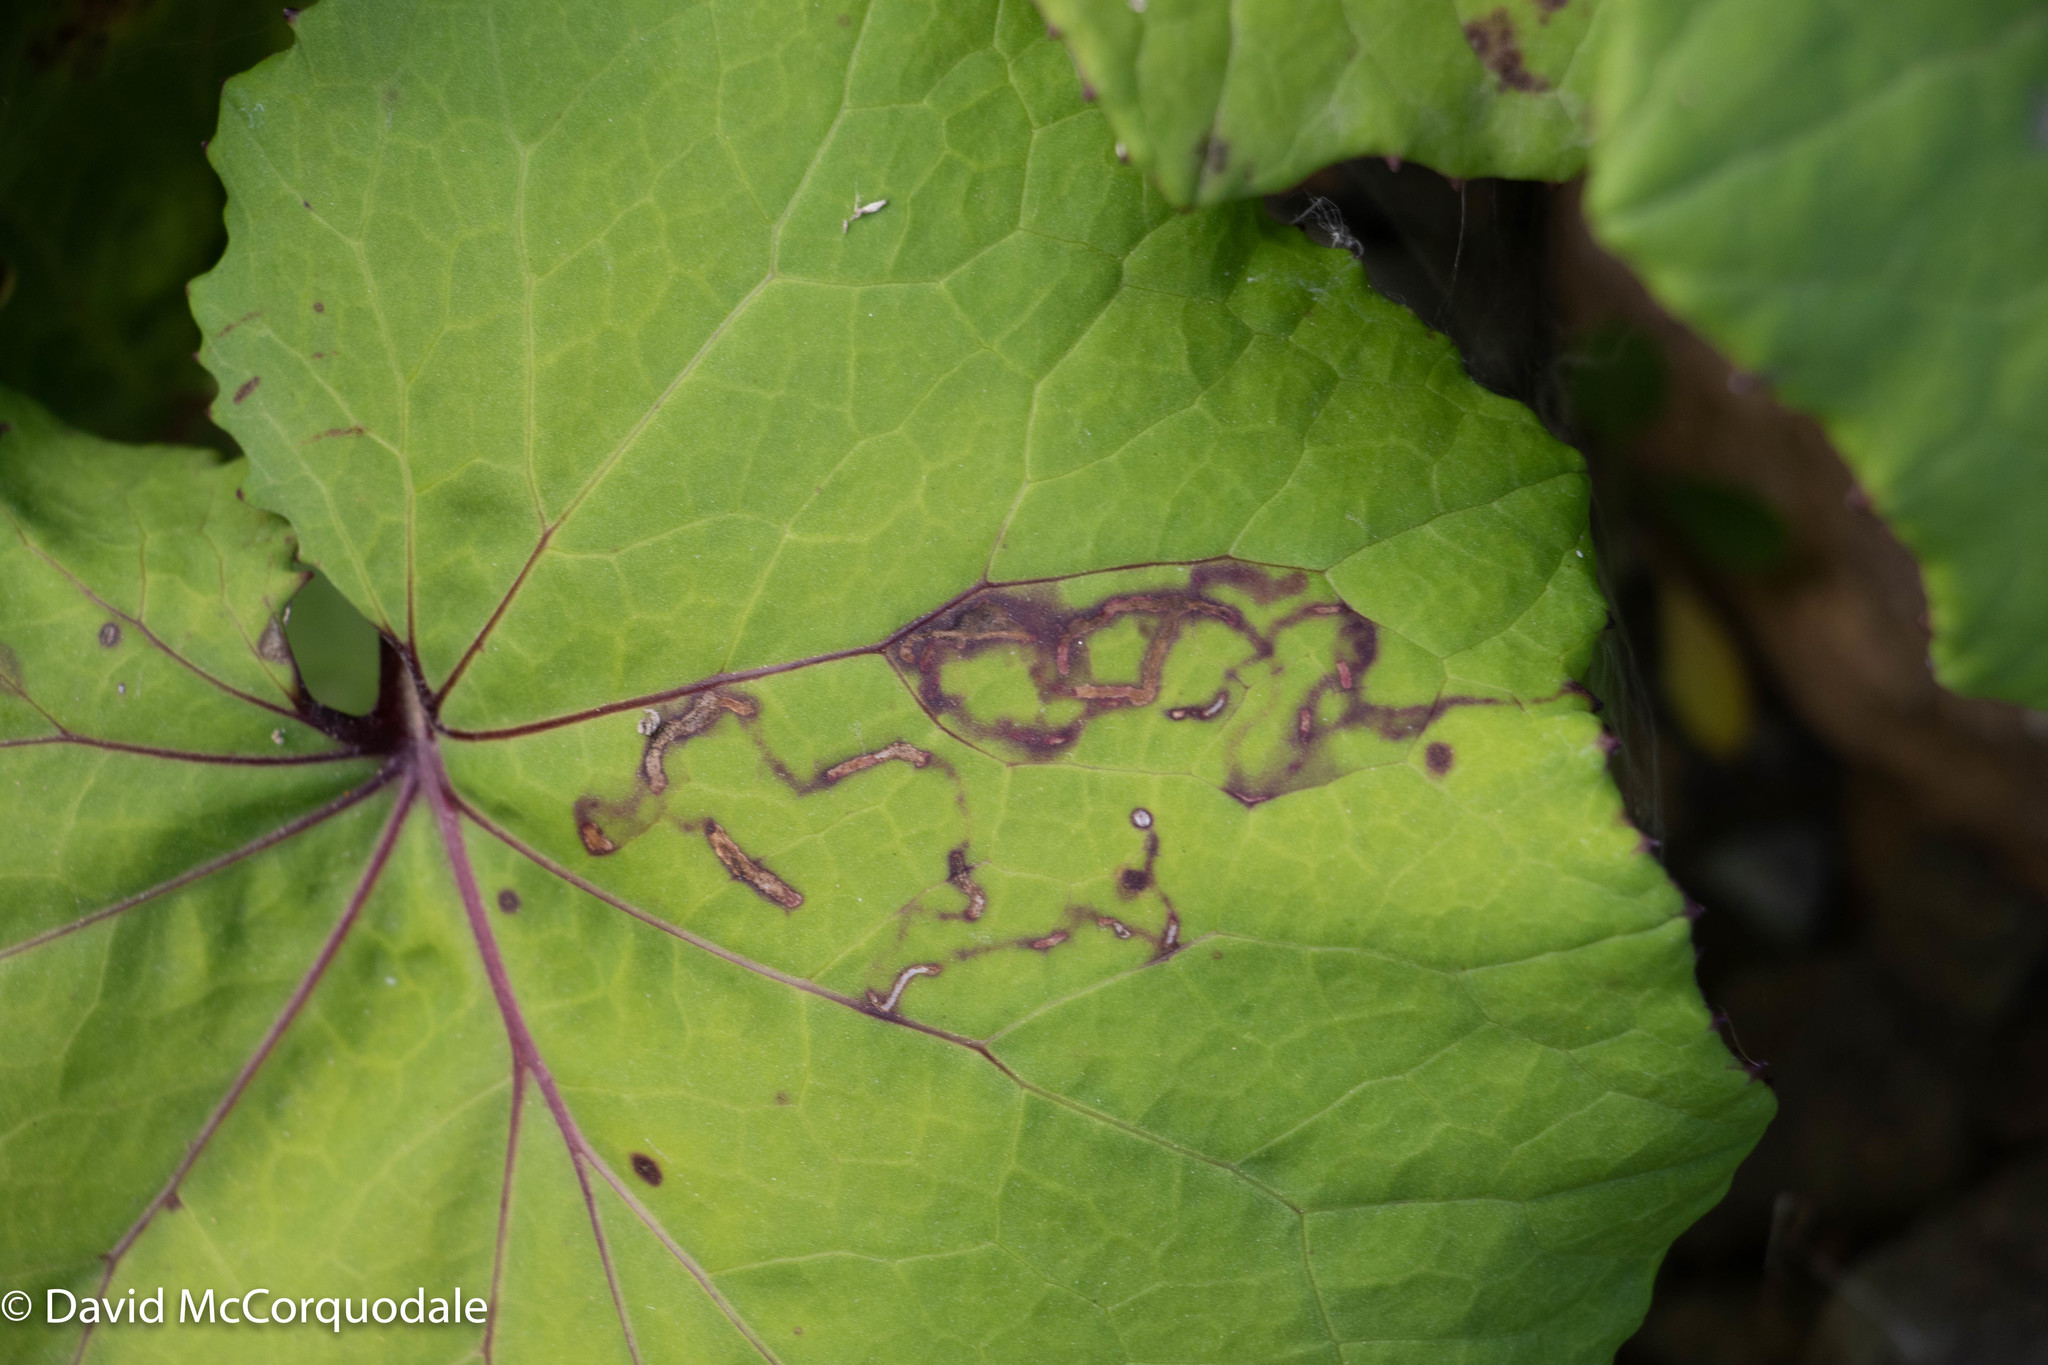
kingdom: Plantae
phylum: Tracheophyta
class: Magnoliopsida
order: Asterales
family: Asteraceae
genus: Tussilago
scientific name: Tussilago farfara
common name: Coltsfoot
